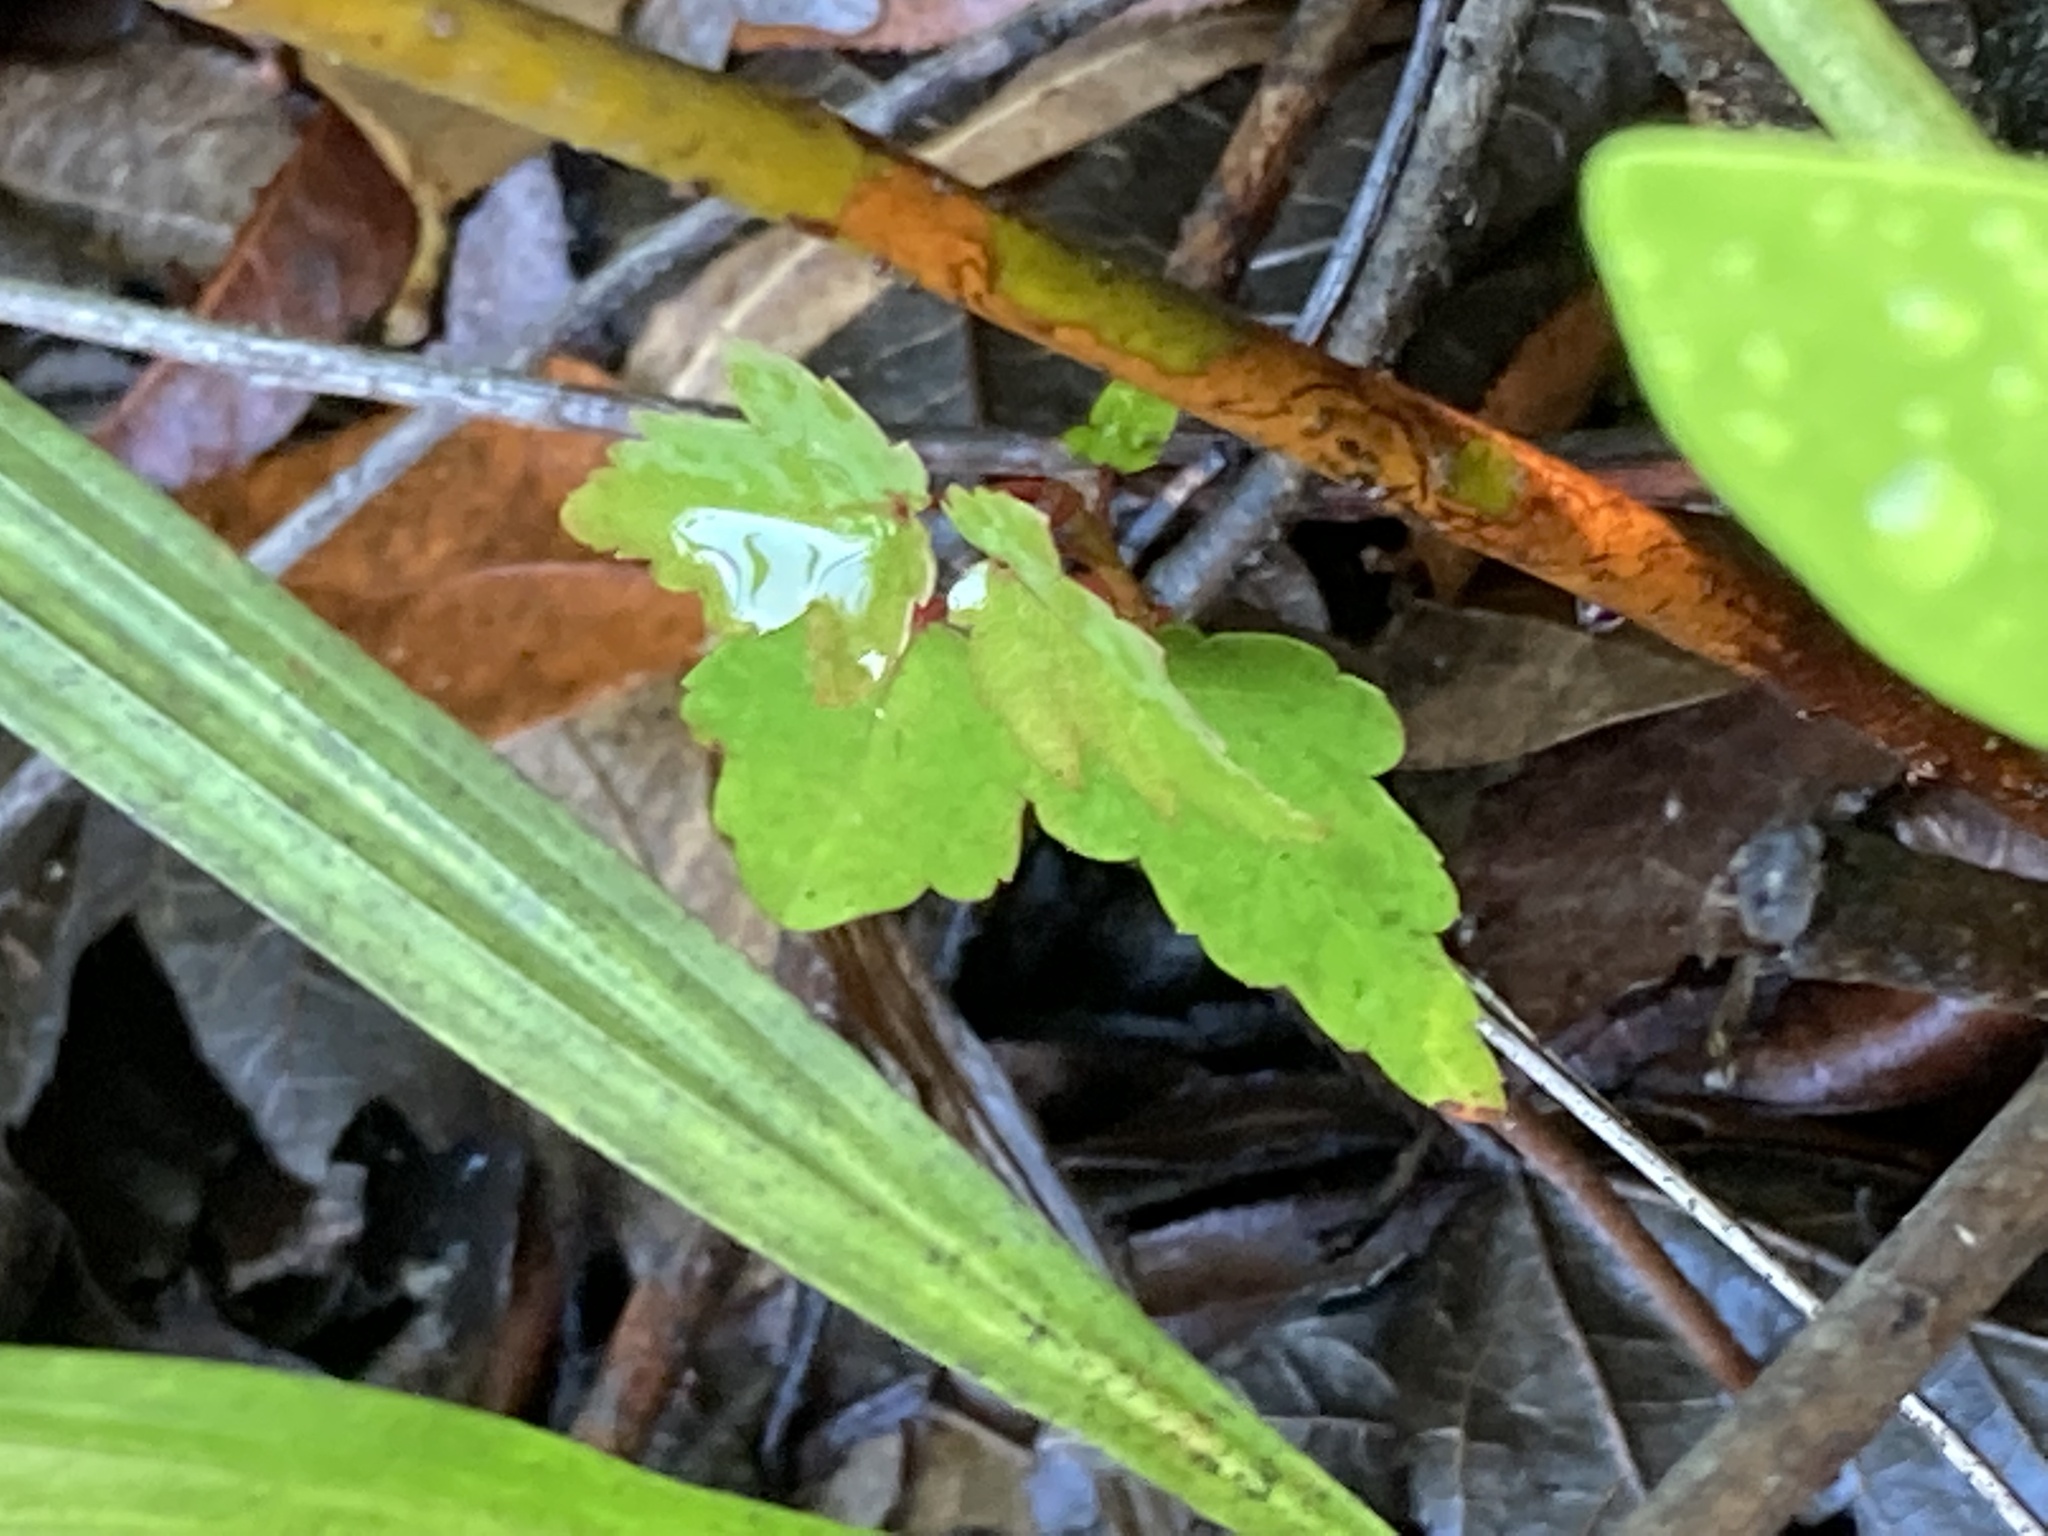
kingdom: Plantae
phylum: Tracheophyta
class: Magnoliopsida
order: Sapindales
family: Sapindaceae
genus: Acer
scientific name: Acer rubrum
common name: Red maple
